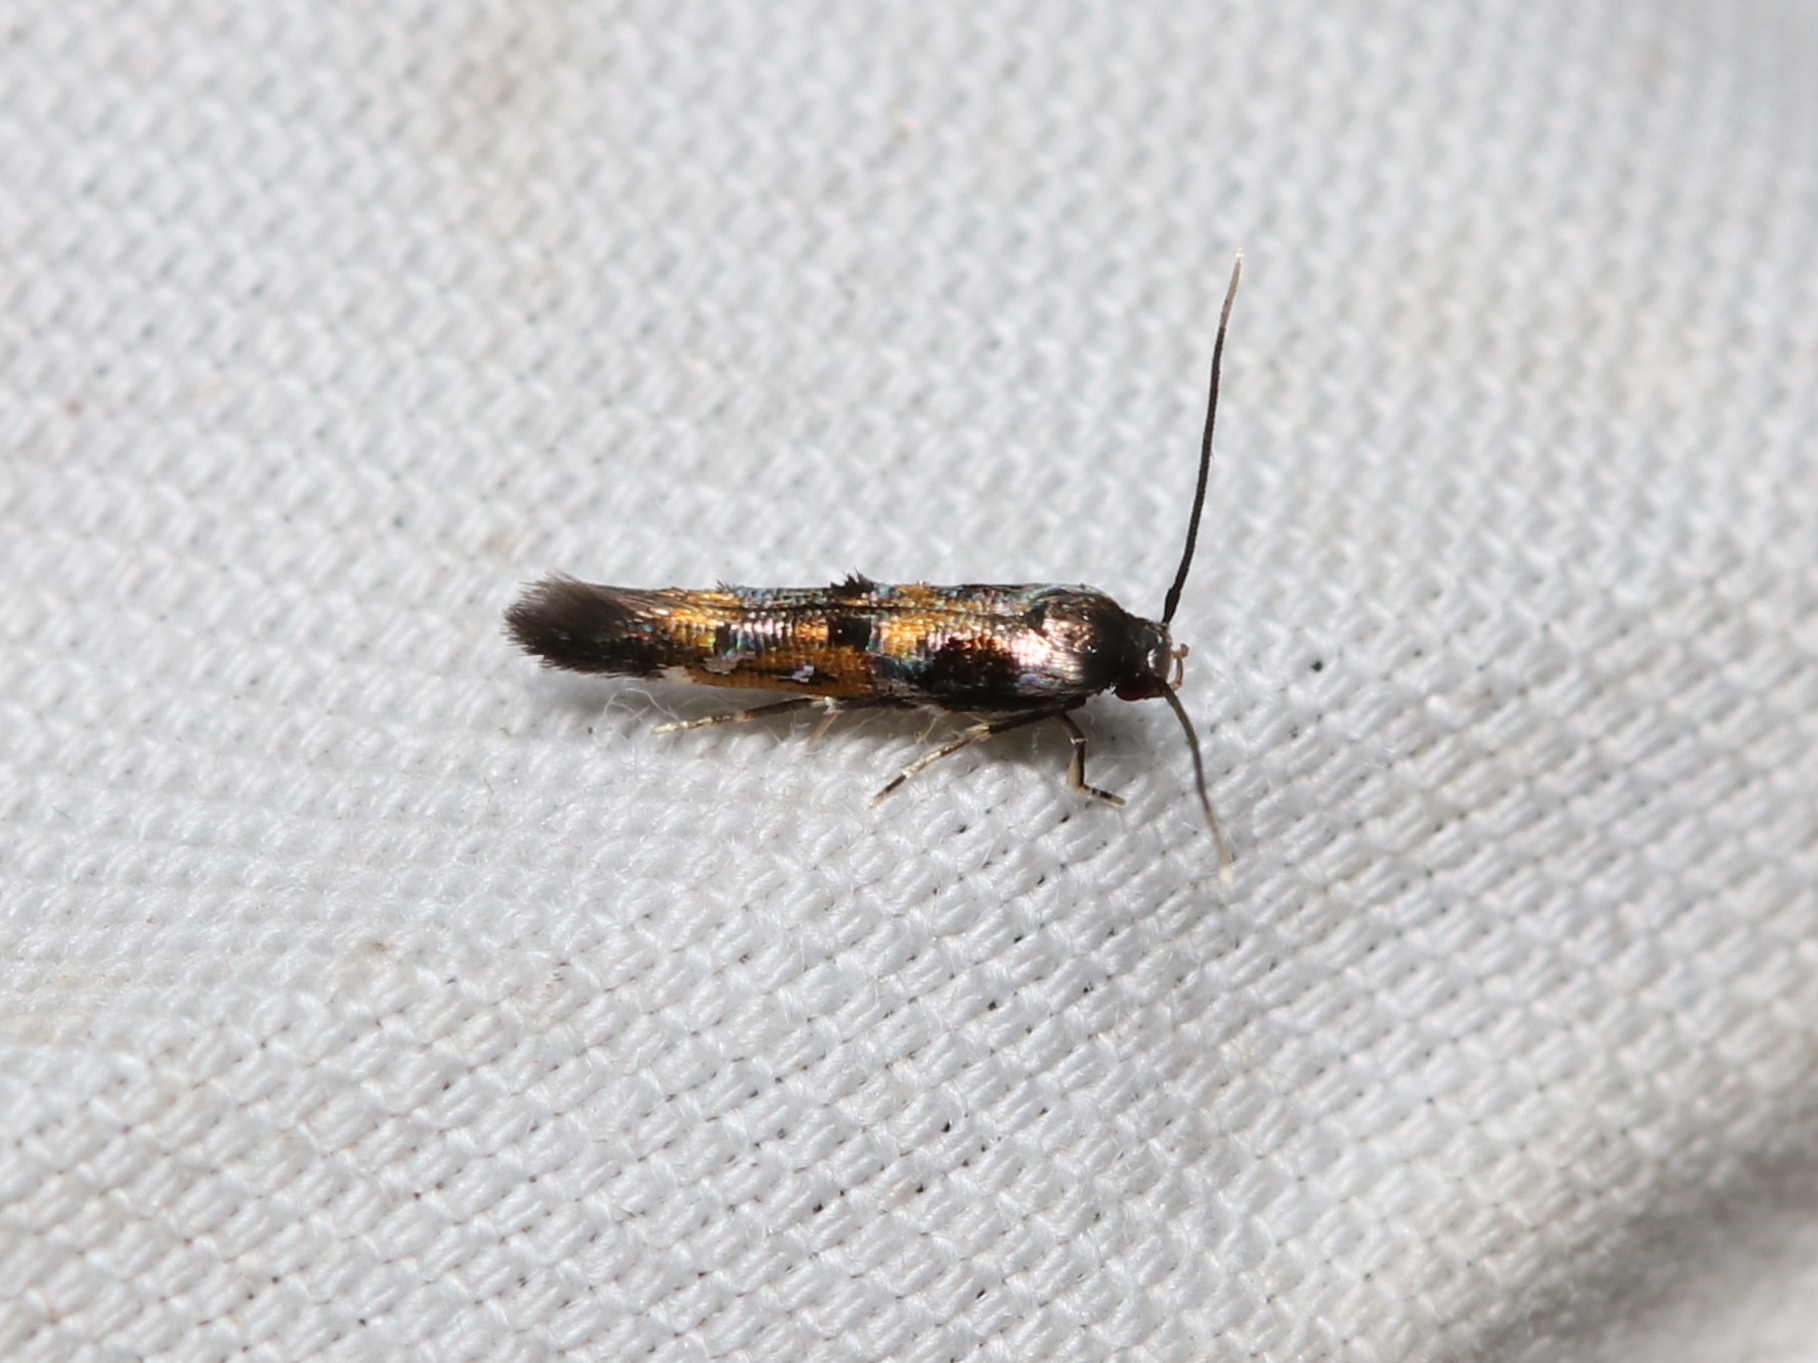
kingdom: Animalia
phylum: Arthropoda
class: Insecta
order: Lepidoptera
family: Momphidae
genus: Mompha
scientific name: Mompha terminella
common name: Enchanters cosmet
